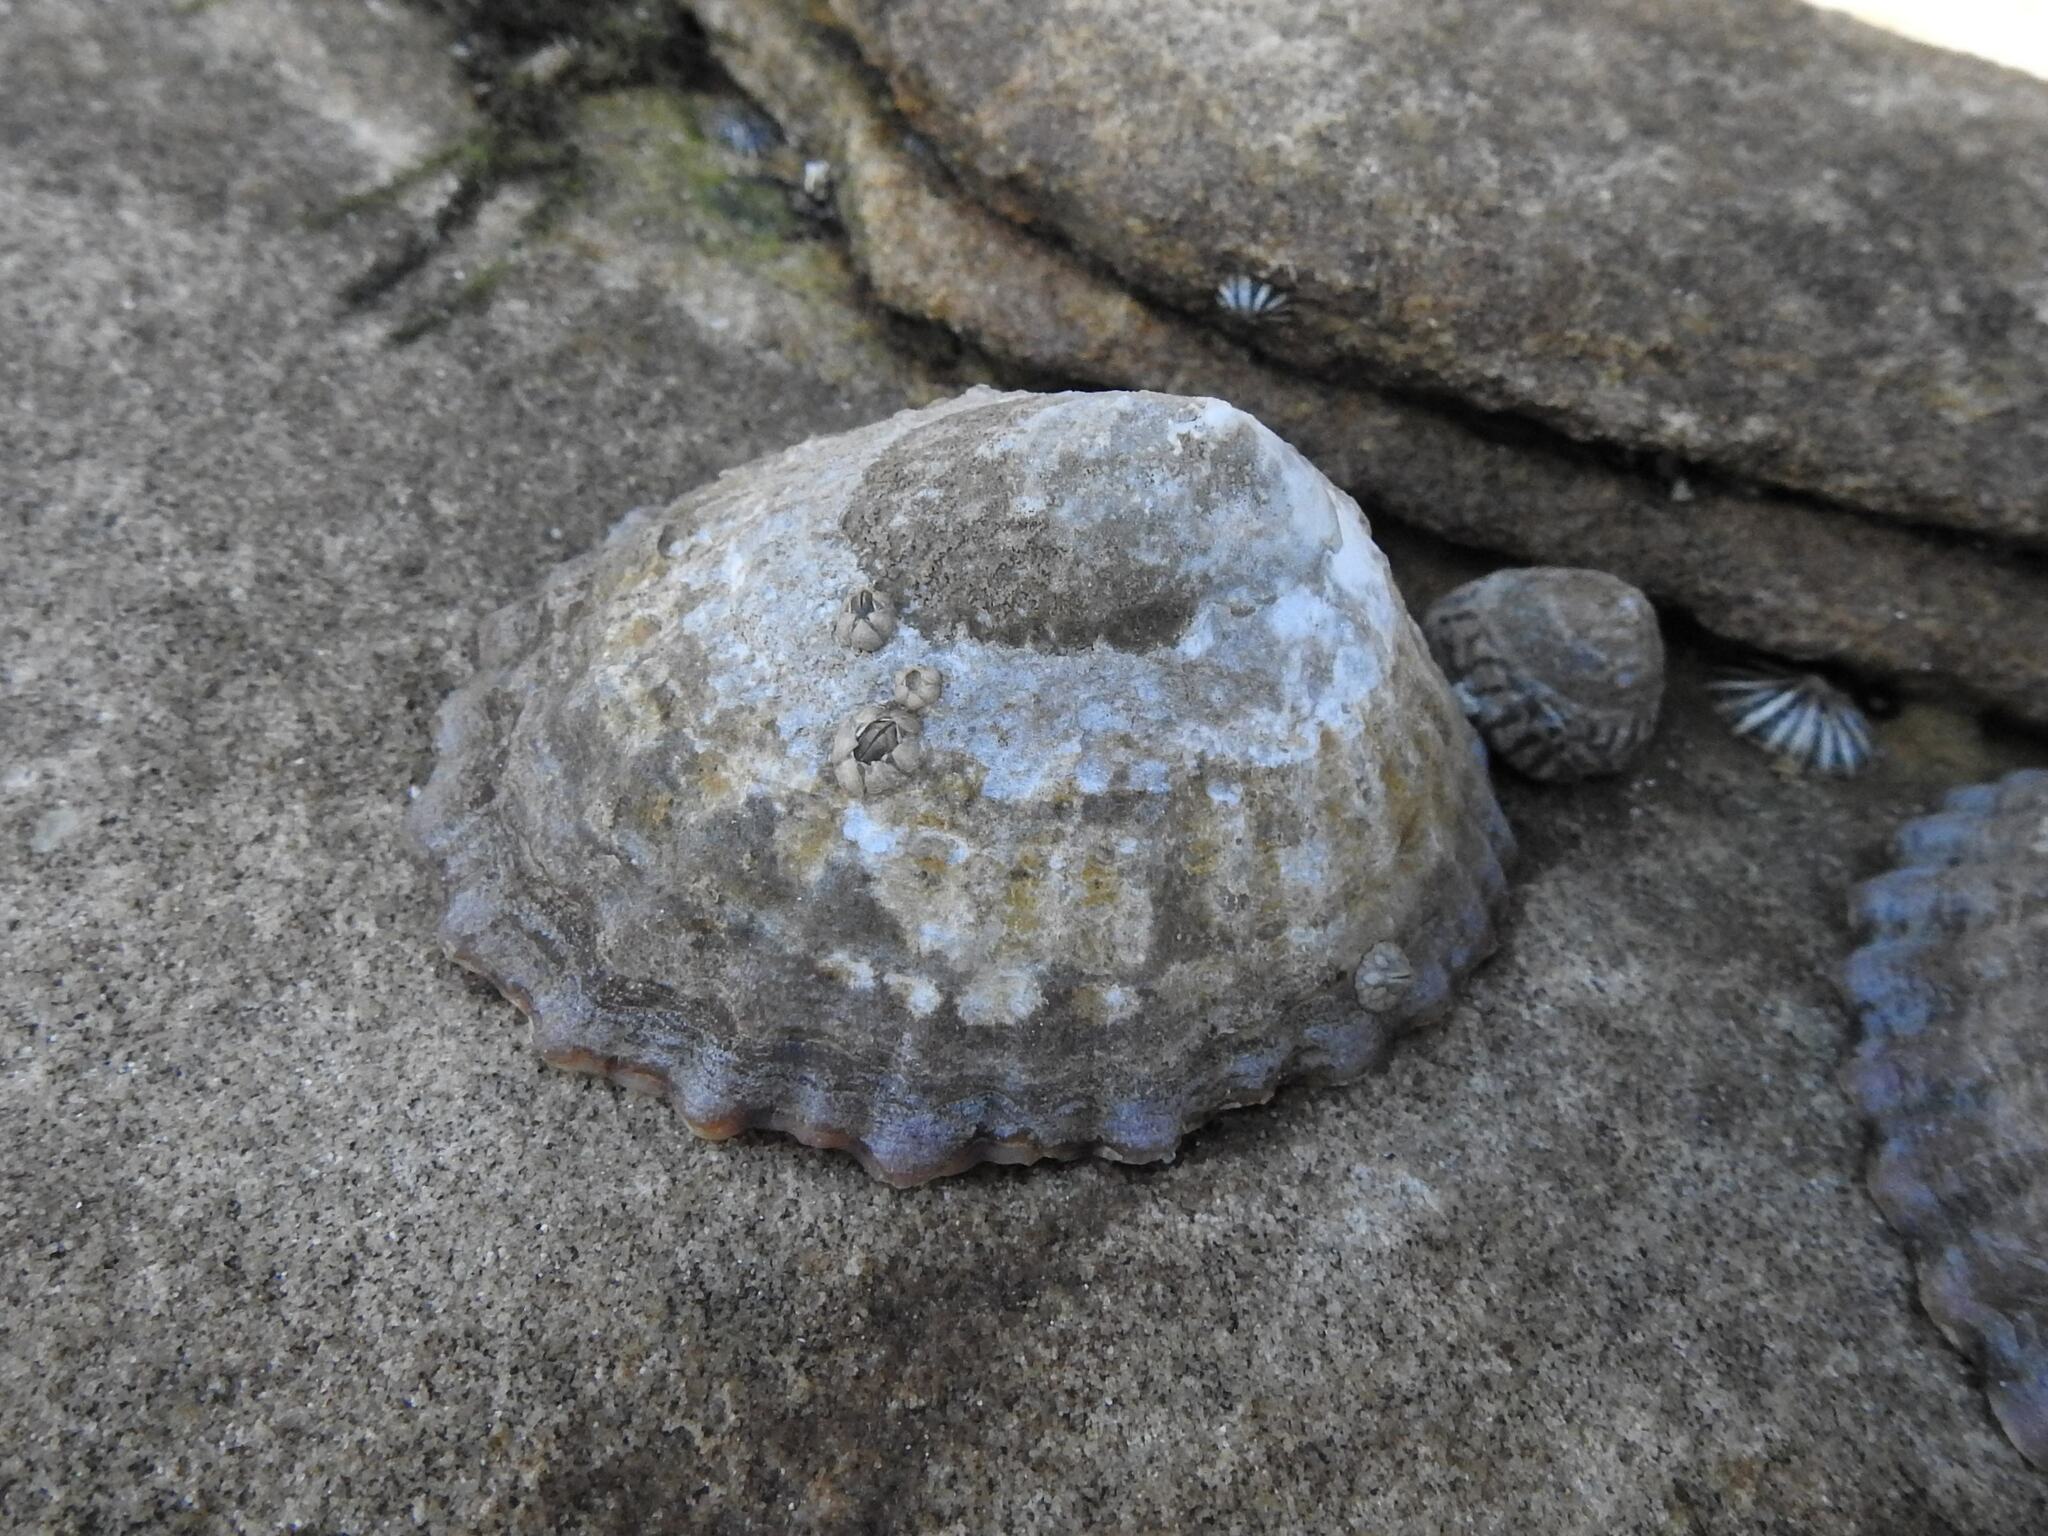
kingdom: Animalia
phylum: Mollusca
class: Gastropoda
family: Nacellidae
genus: Cellana
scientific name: Cellana solida
